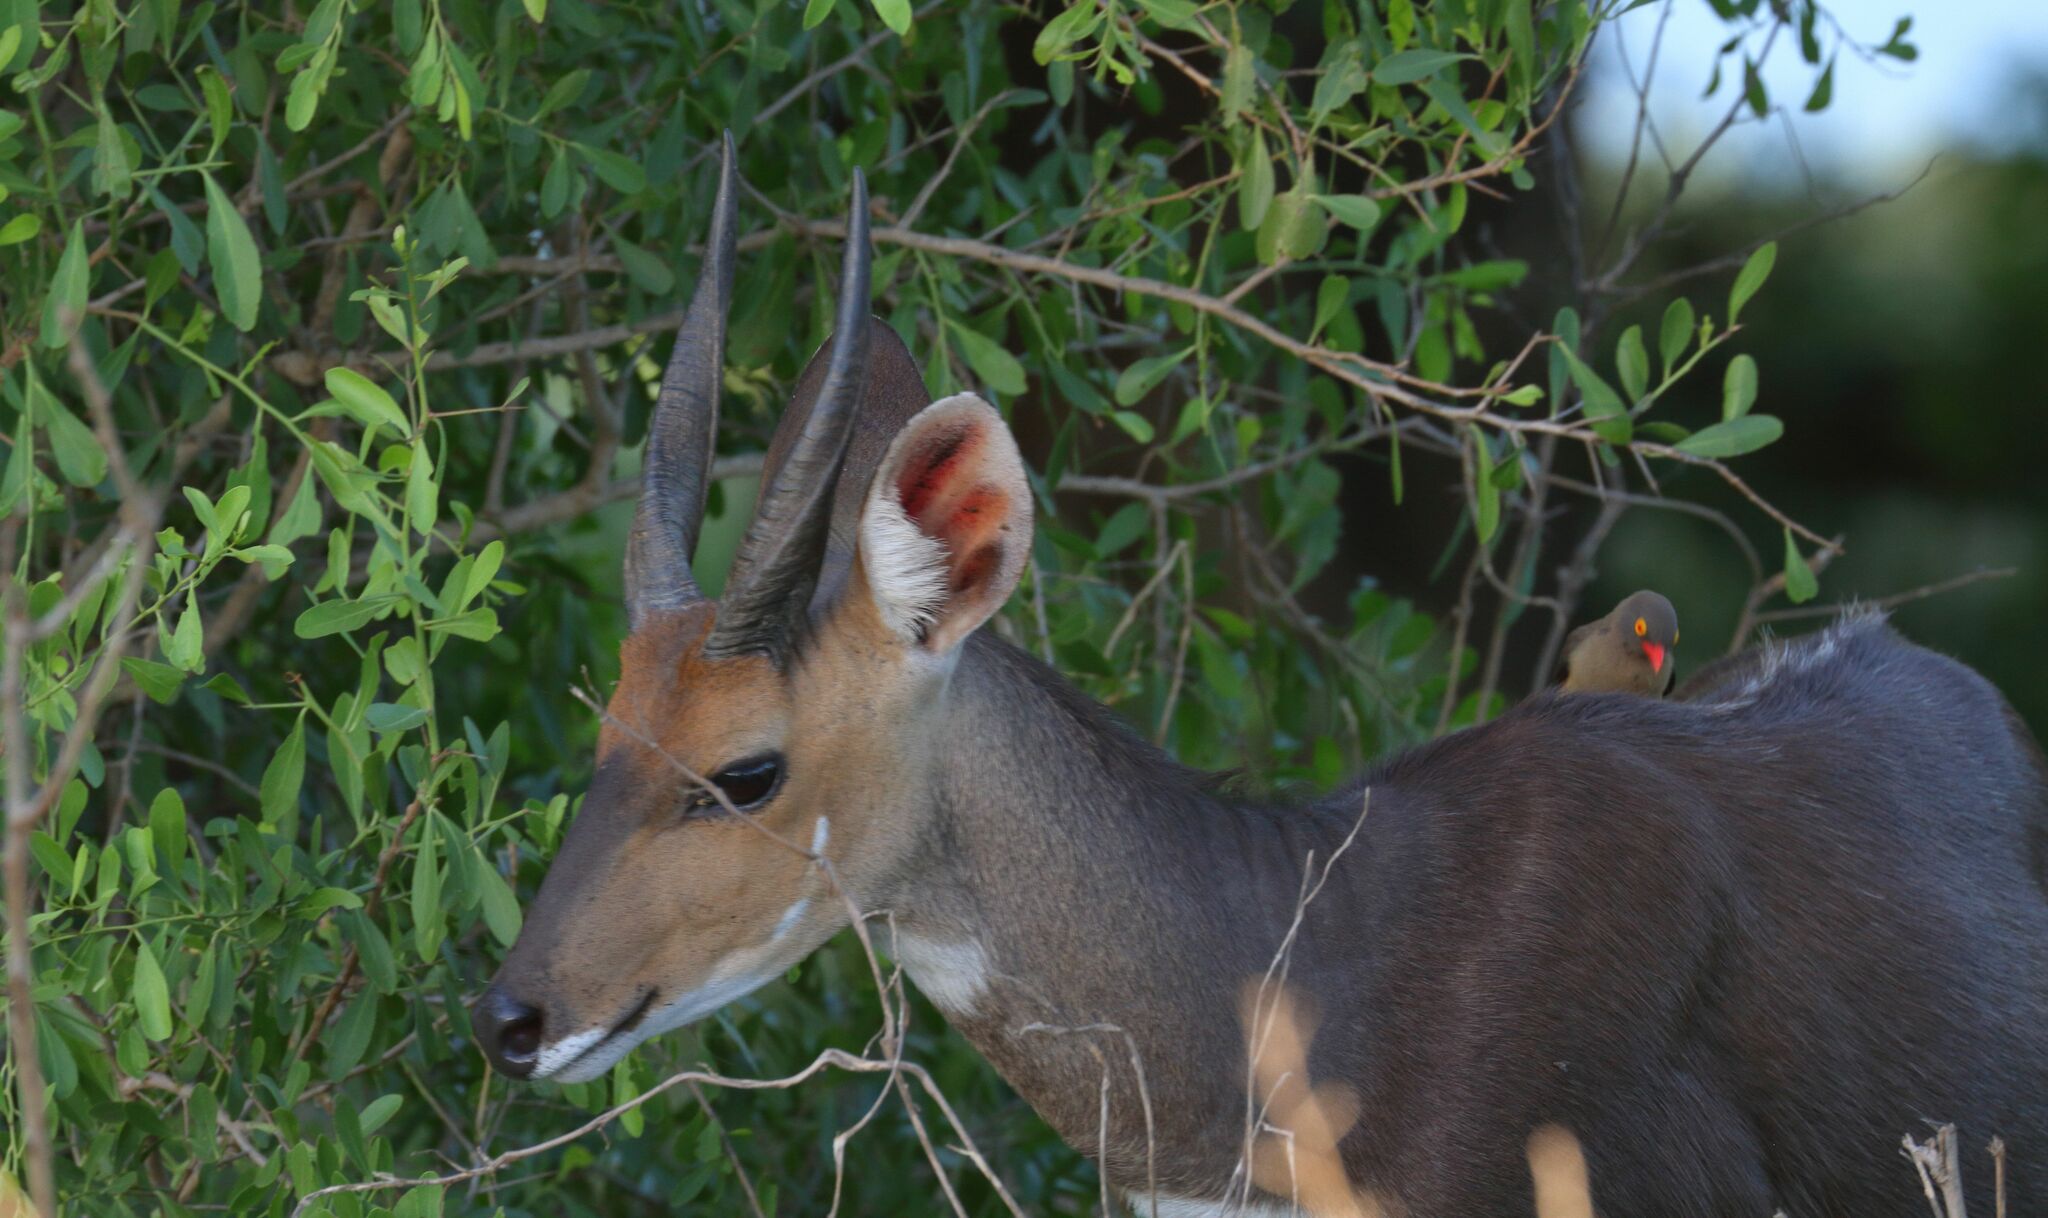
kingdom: Animalia
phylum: Chordata
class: Mammalia
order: Artiodactyla
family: Bovidae
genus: Tragelaphus
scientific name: Tragelaphus scriptus
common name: Bushbuck
